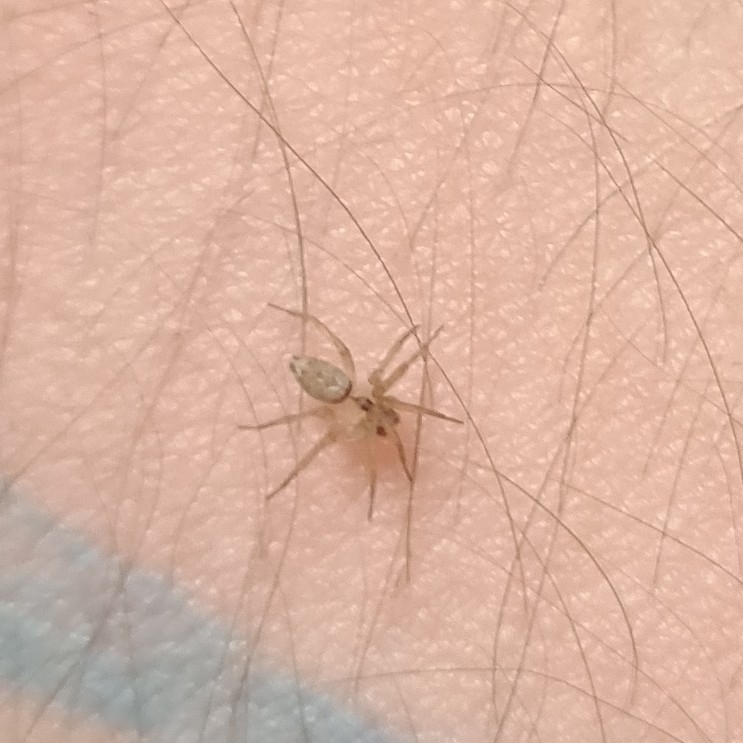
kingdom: Animalia
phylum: Arthropoda
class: Arachnida
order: Araneae
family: Oecobiidae
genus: Oecobius
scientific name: Oecobius navus
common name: Flatmesh weaver
